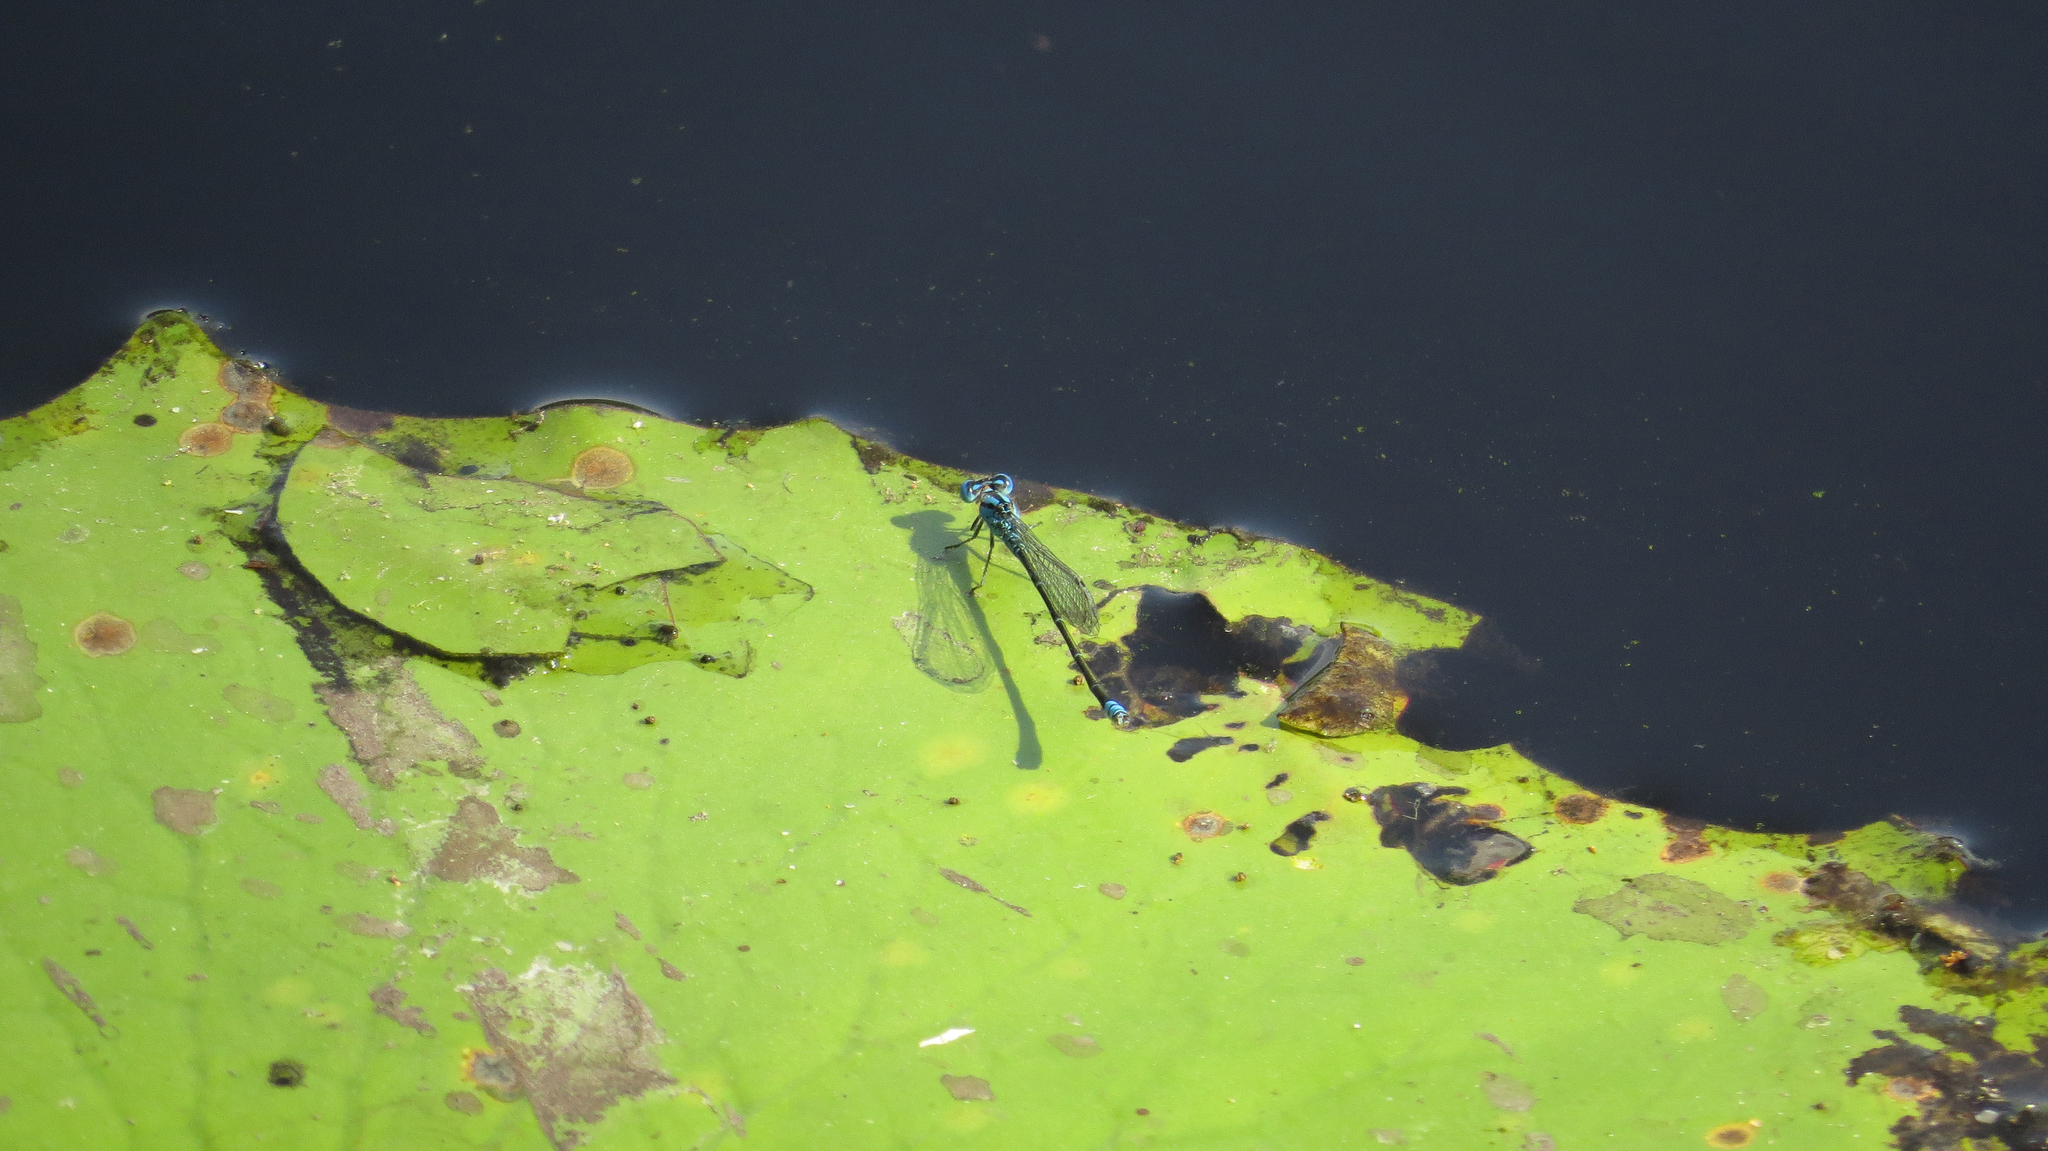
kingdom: Animalia
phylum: Arthropoda
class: Insecta
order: Odonata
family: Coenagrionidae
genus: Pseudagrion
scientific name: Pseudagrion microcephalum
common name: Blue riverdamsel
